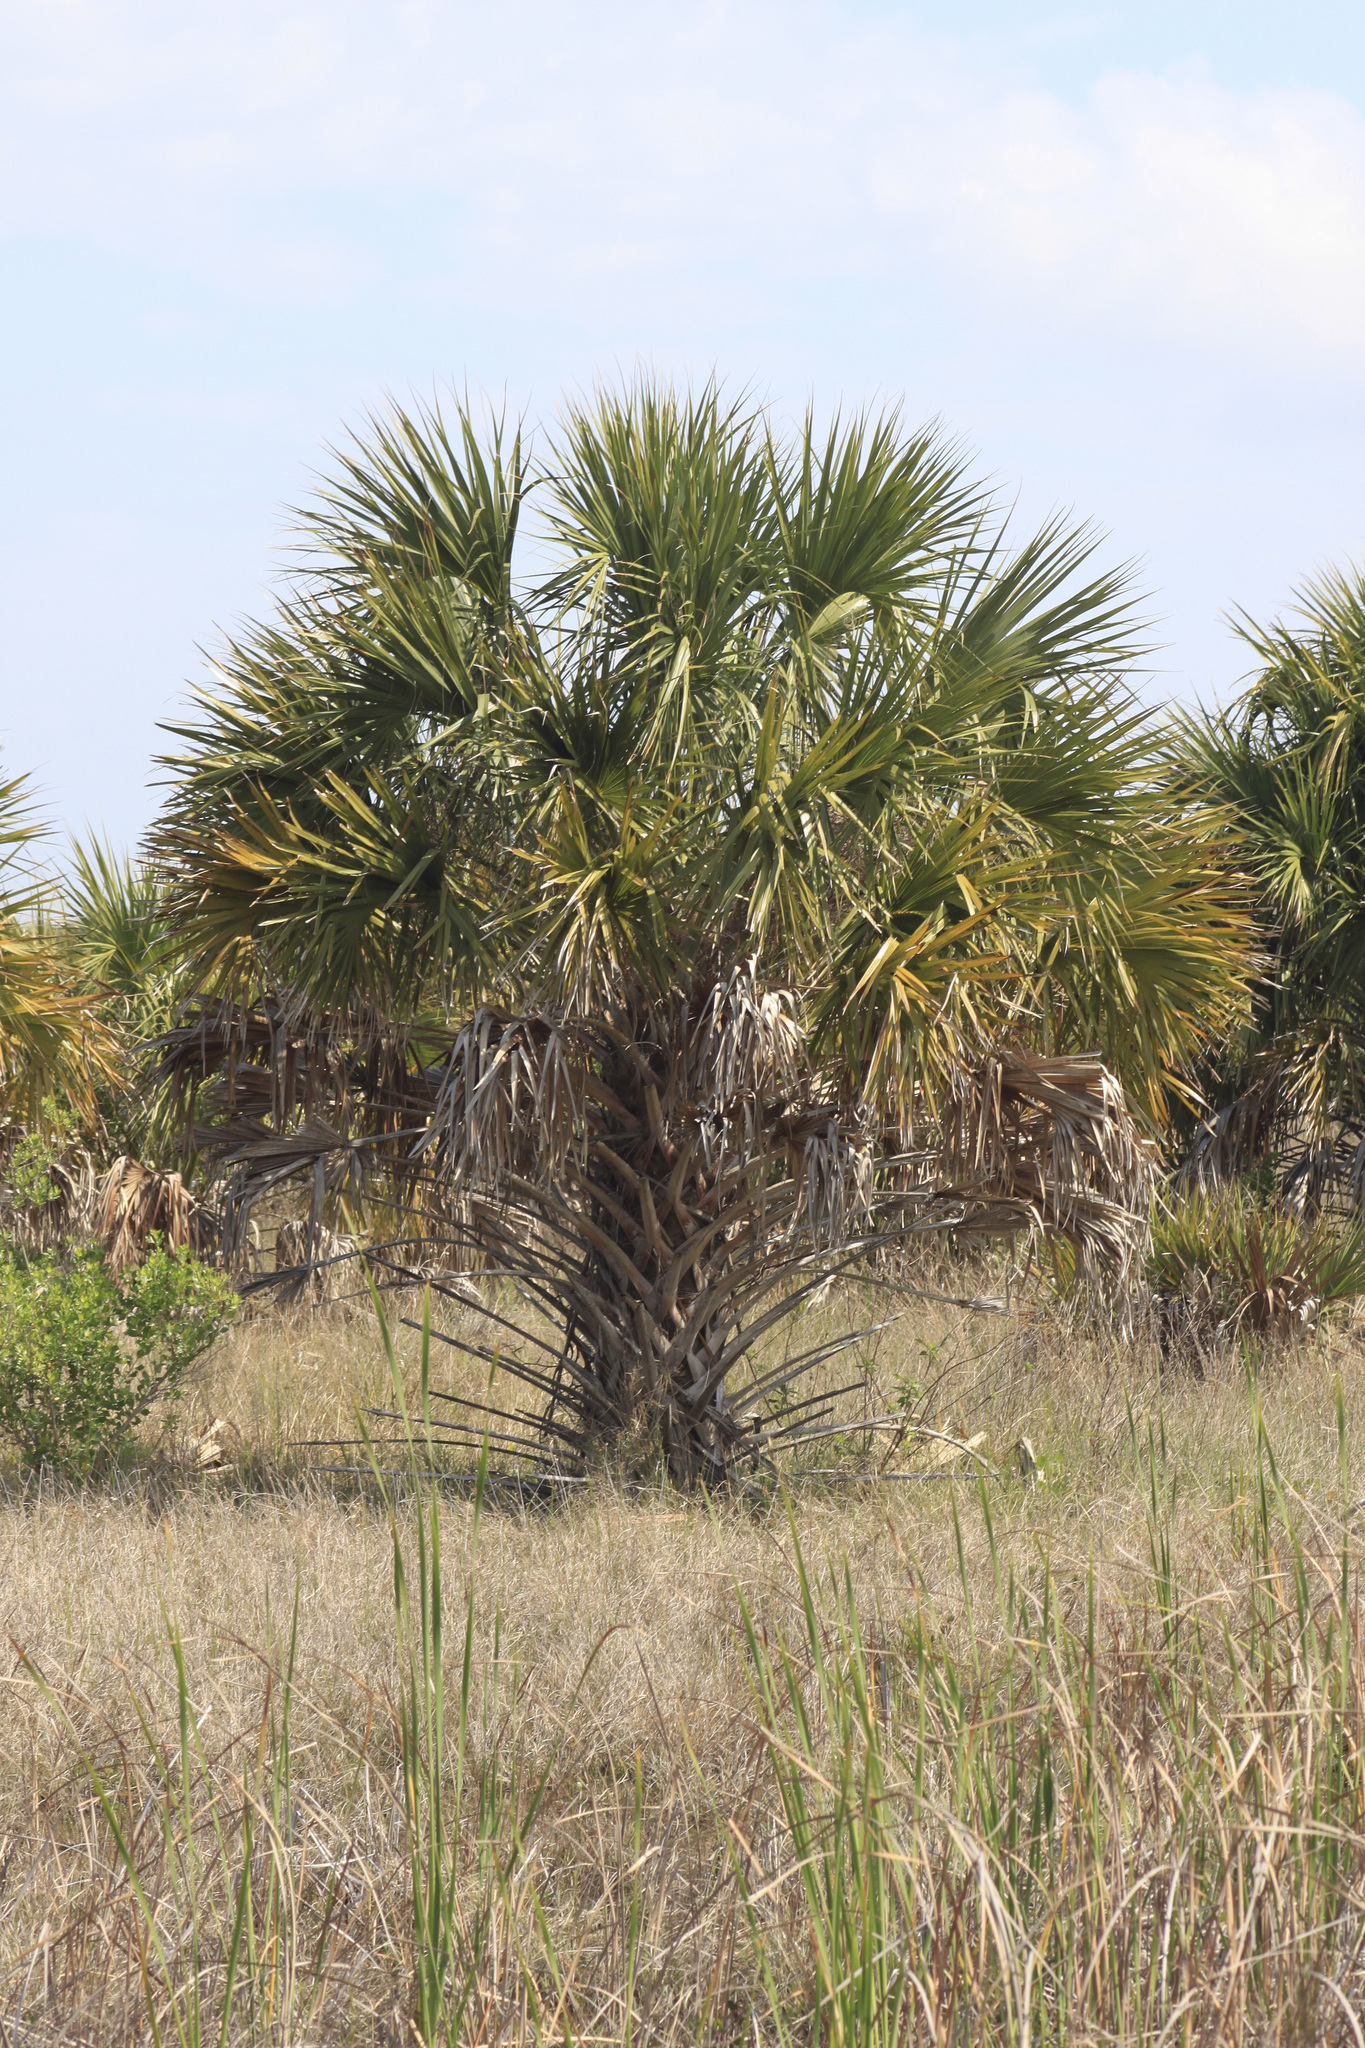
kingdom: Plantae
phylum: Tracheophyta
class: Liliopsida
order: Arecales
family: Arecaceae
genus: Sabal
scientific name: Sabal palmetto
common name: Blue palmetto
